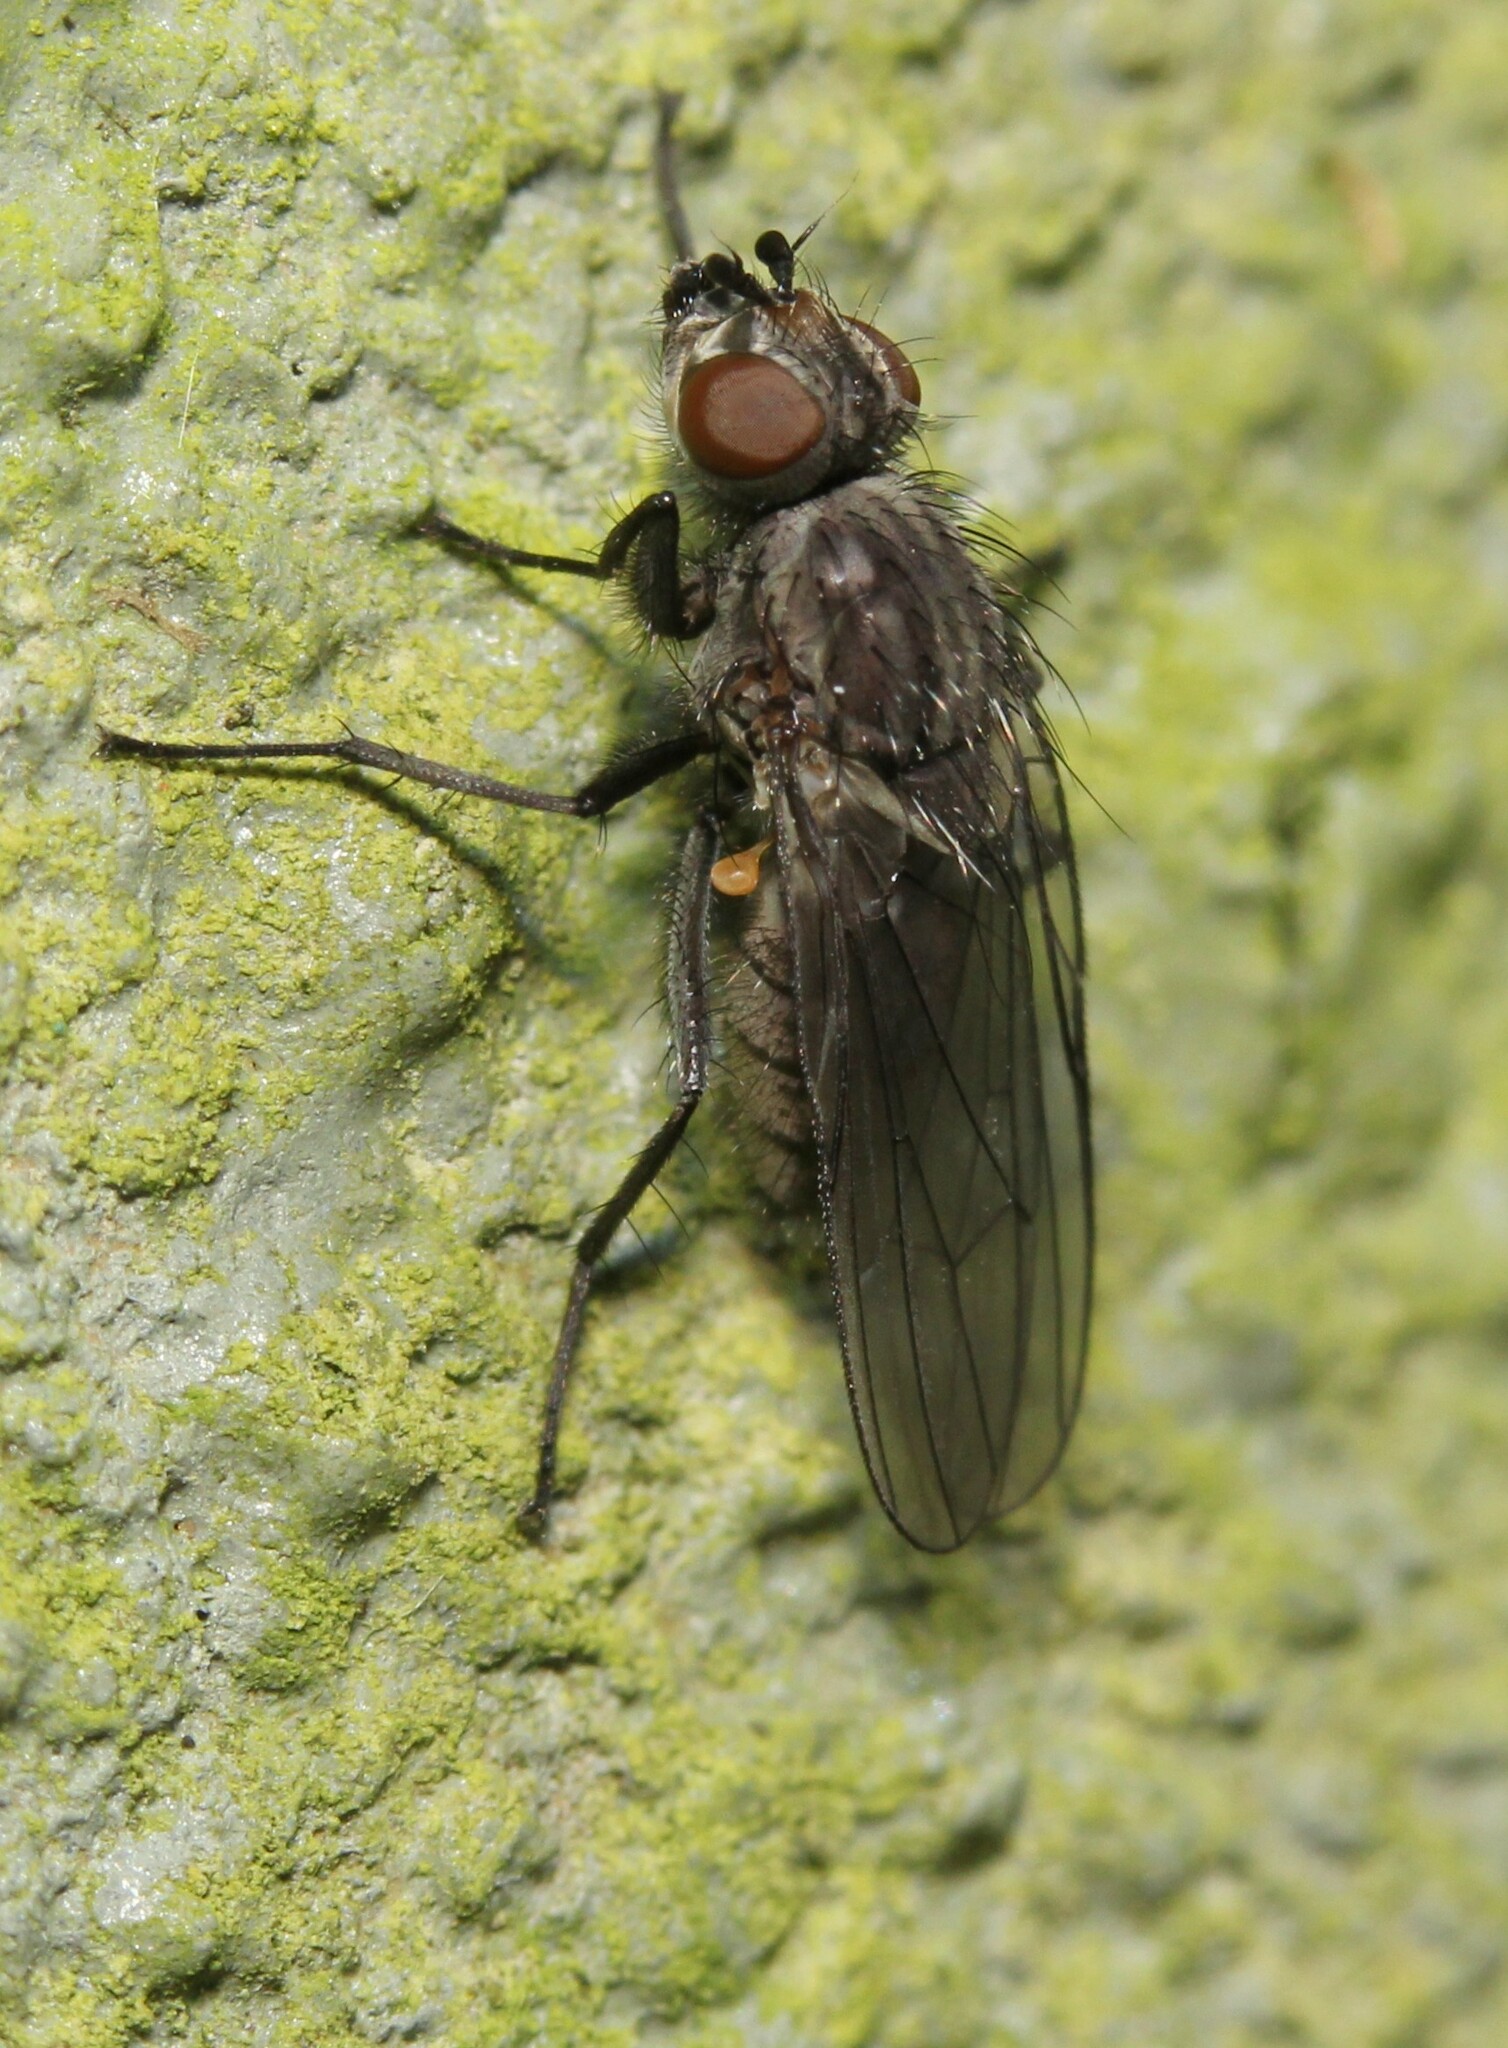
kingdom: Animalia
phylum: Arthropoda
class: Insecta
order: Diptera
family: Anthomyiidae
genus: Egle
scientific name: Egle ciliata
